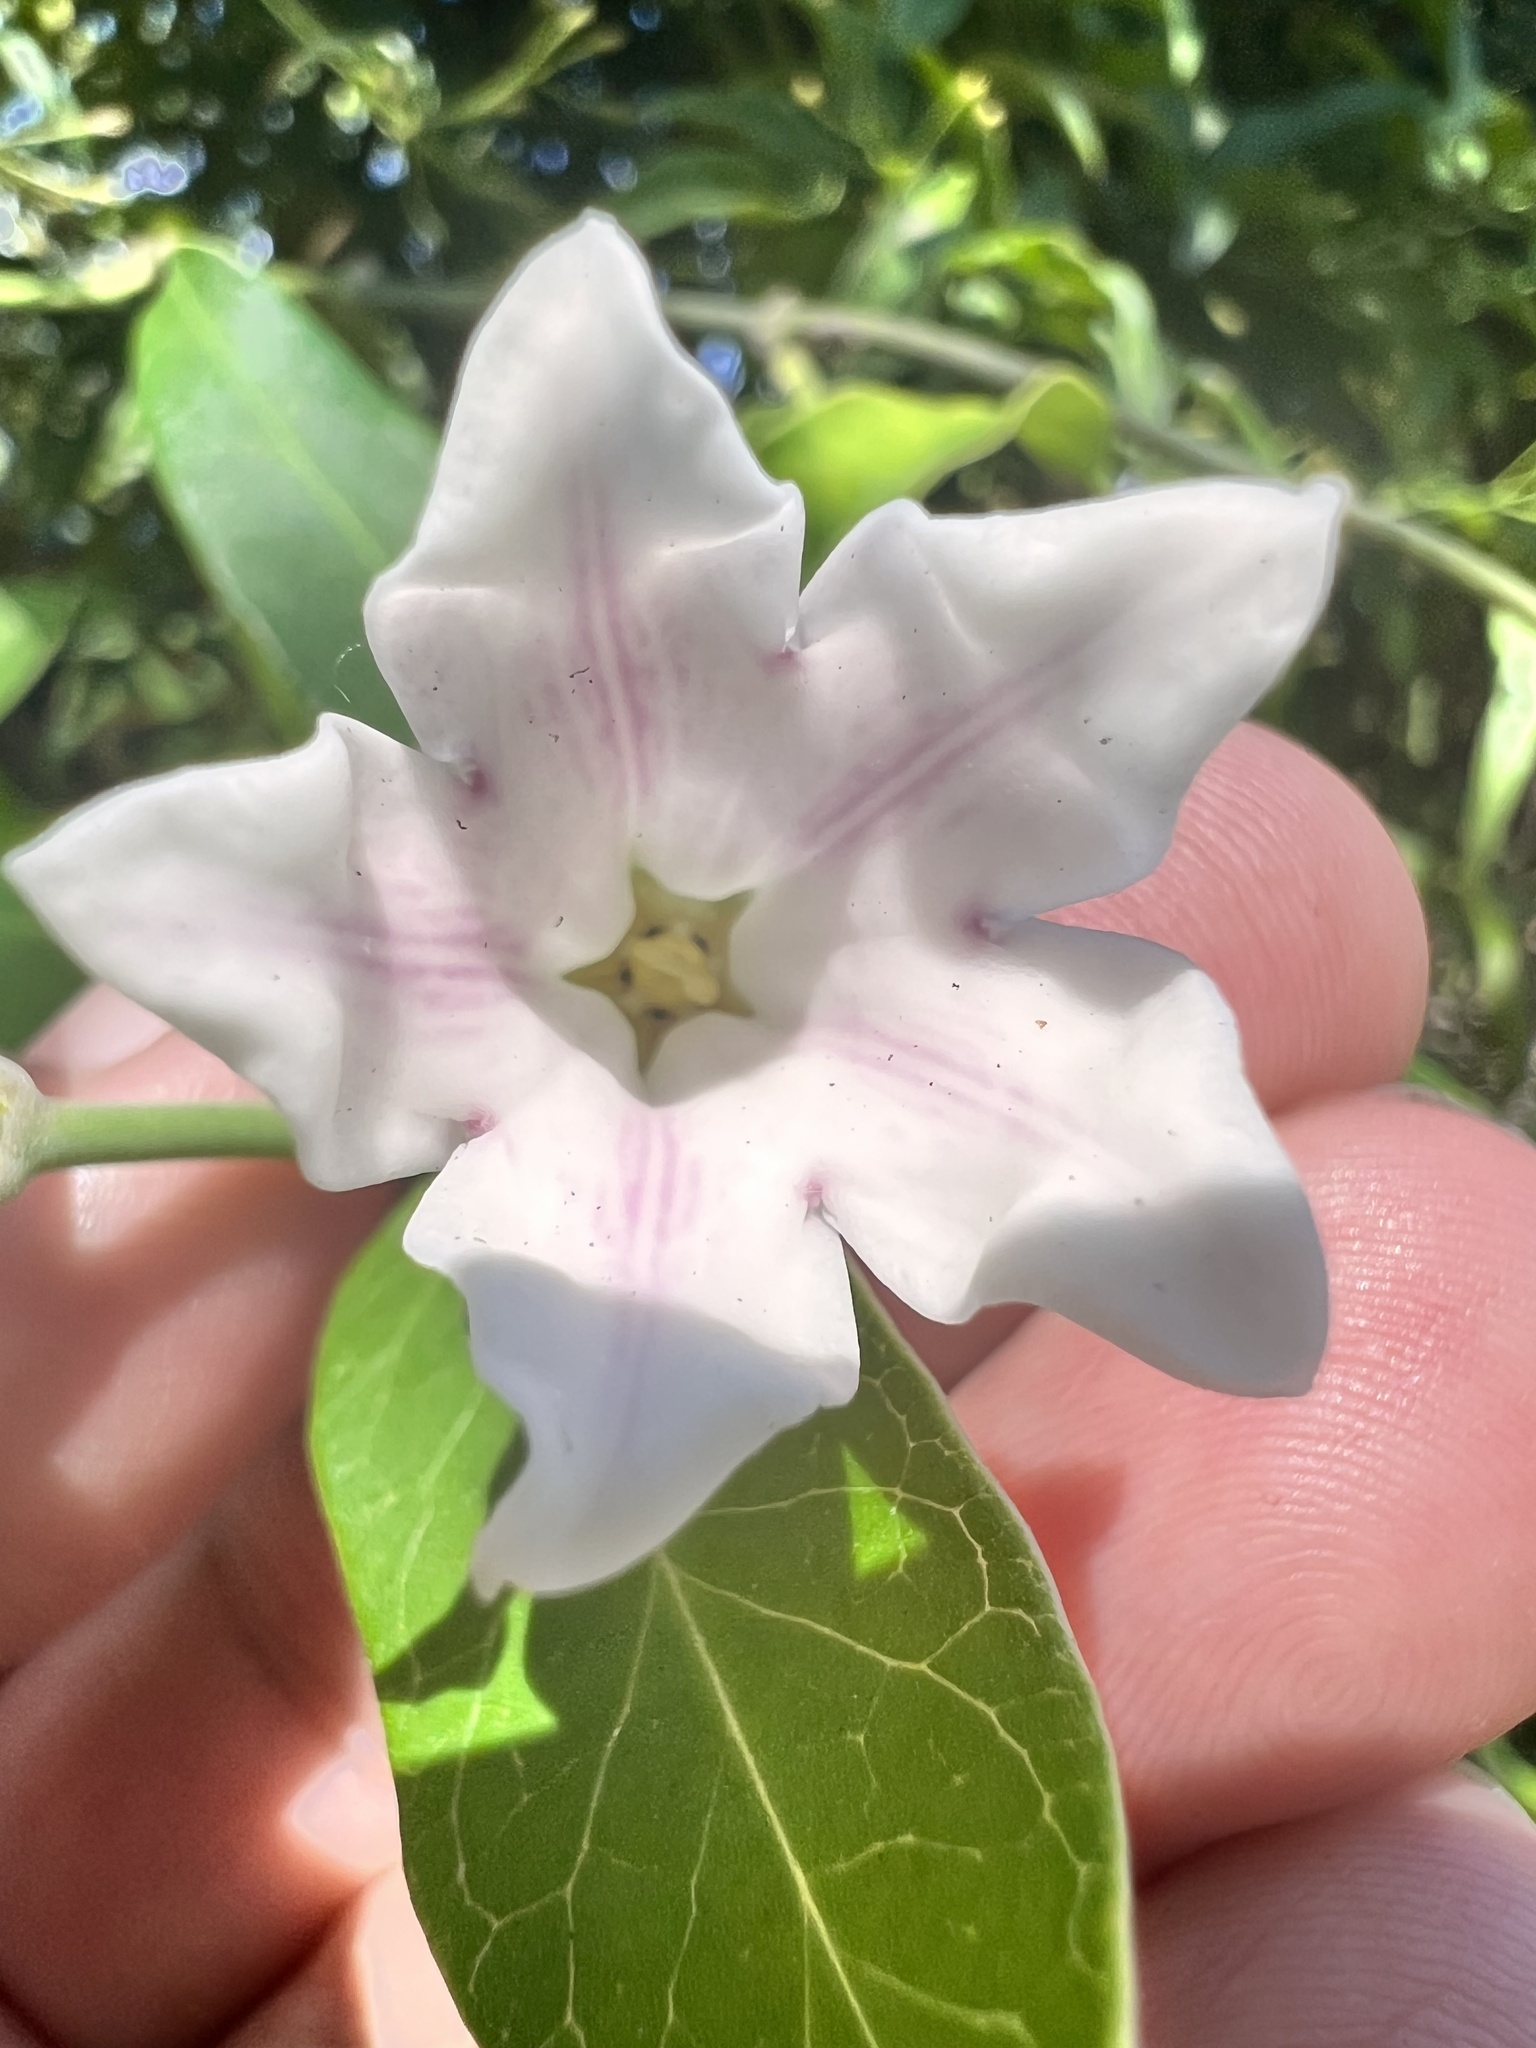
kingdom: Plantae
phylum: Tracheophyta
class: Magnoliopsida
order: Gentianales
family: Apocynaceae
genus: Araujia
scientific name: Araujia sericifera
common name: White bladderflower
